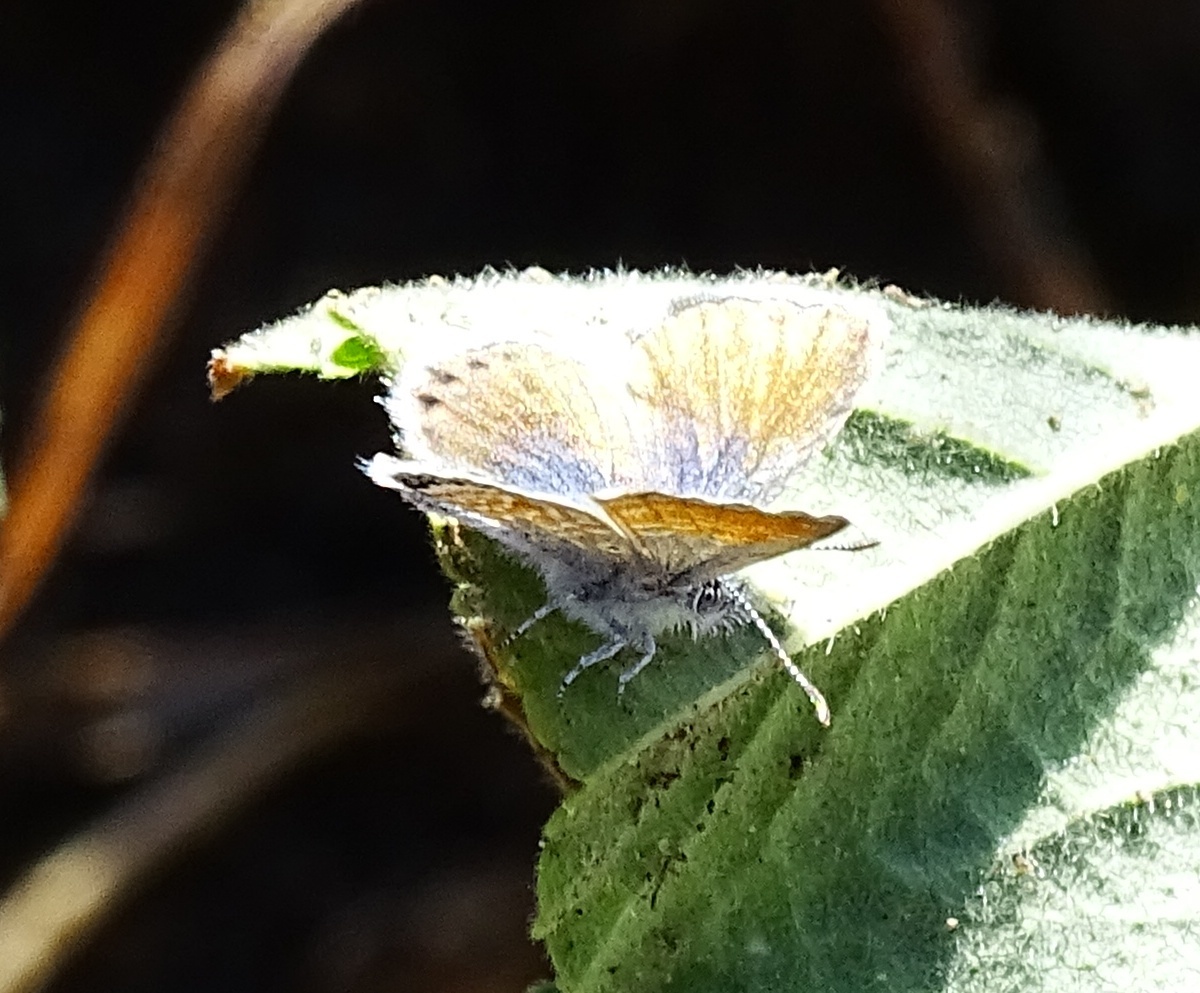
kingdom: Animalia
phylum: Arthropoda
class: Insecta
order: Lepidoptera
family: Lycaenidae
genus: Brephidium
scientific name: Brephidium exilis
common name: Pygmy blue
